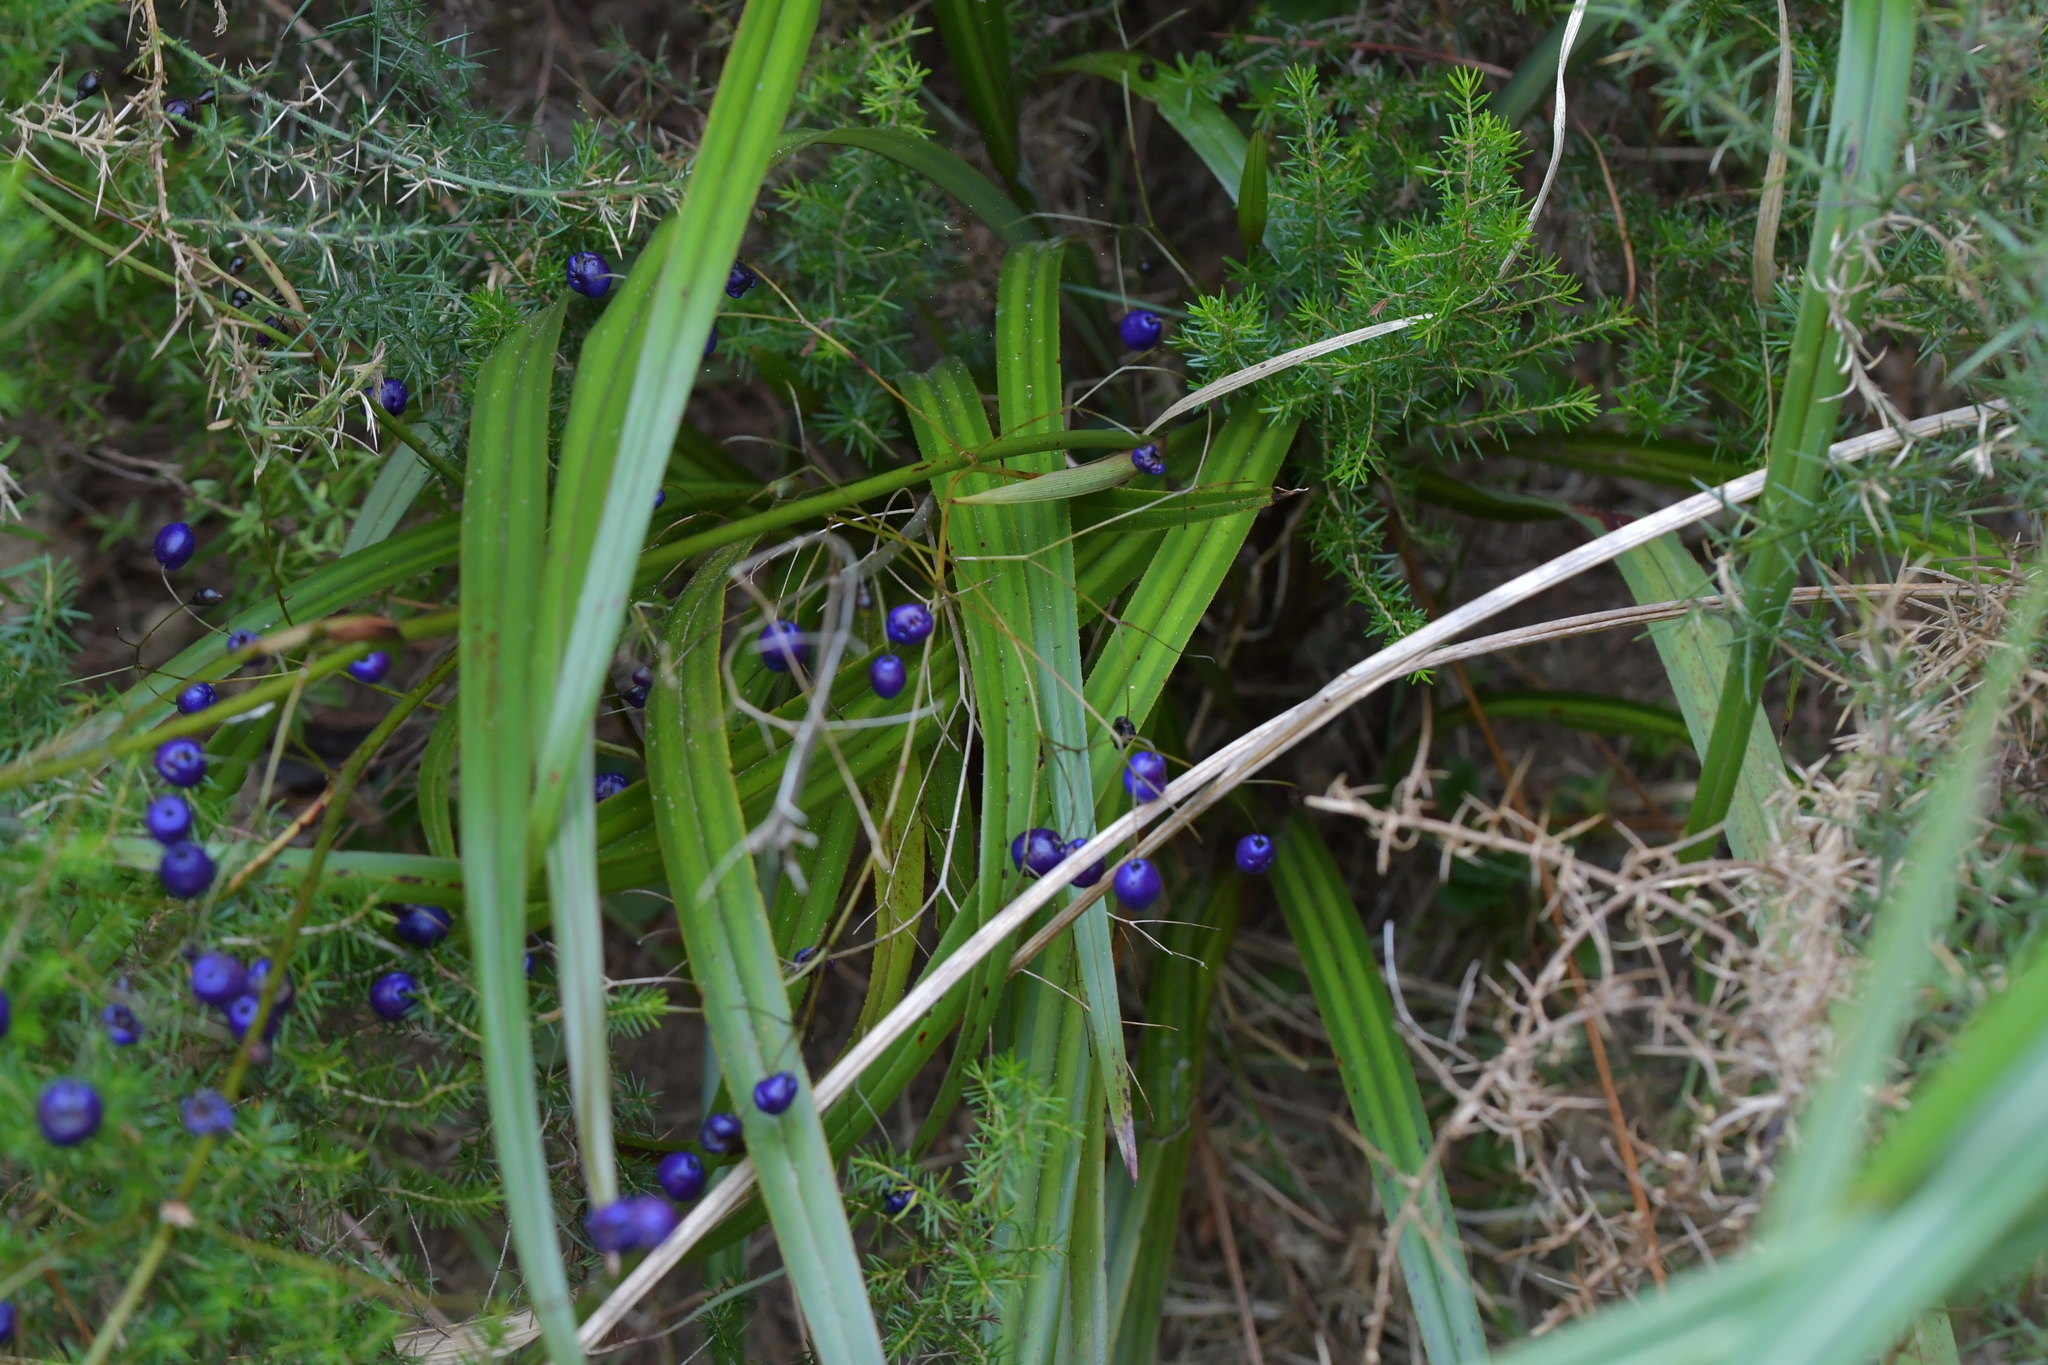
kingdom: Plantae
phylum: Tracheophyta
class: Liliopsida
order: Asparagales
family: Asphodelaceae
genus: Dianella
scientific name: Dianella nigra
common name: New zealand-blueberry
